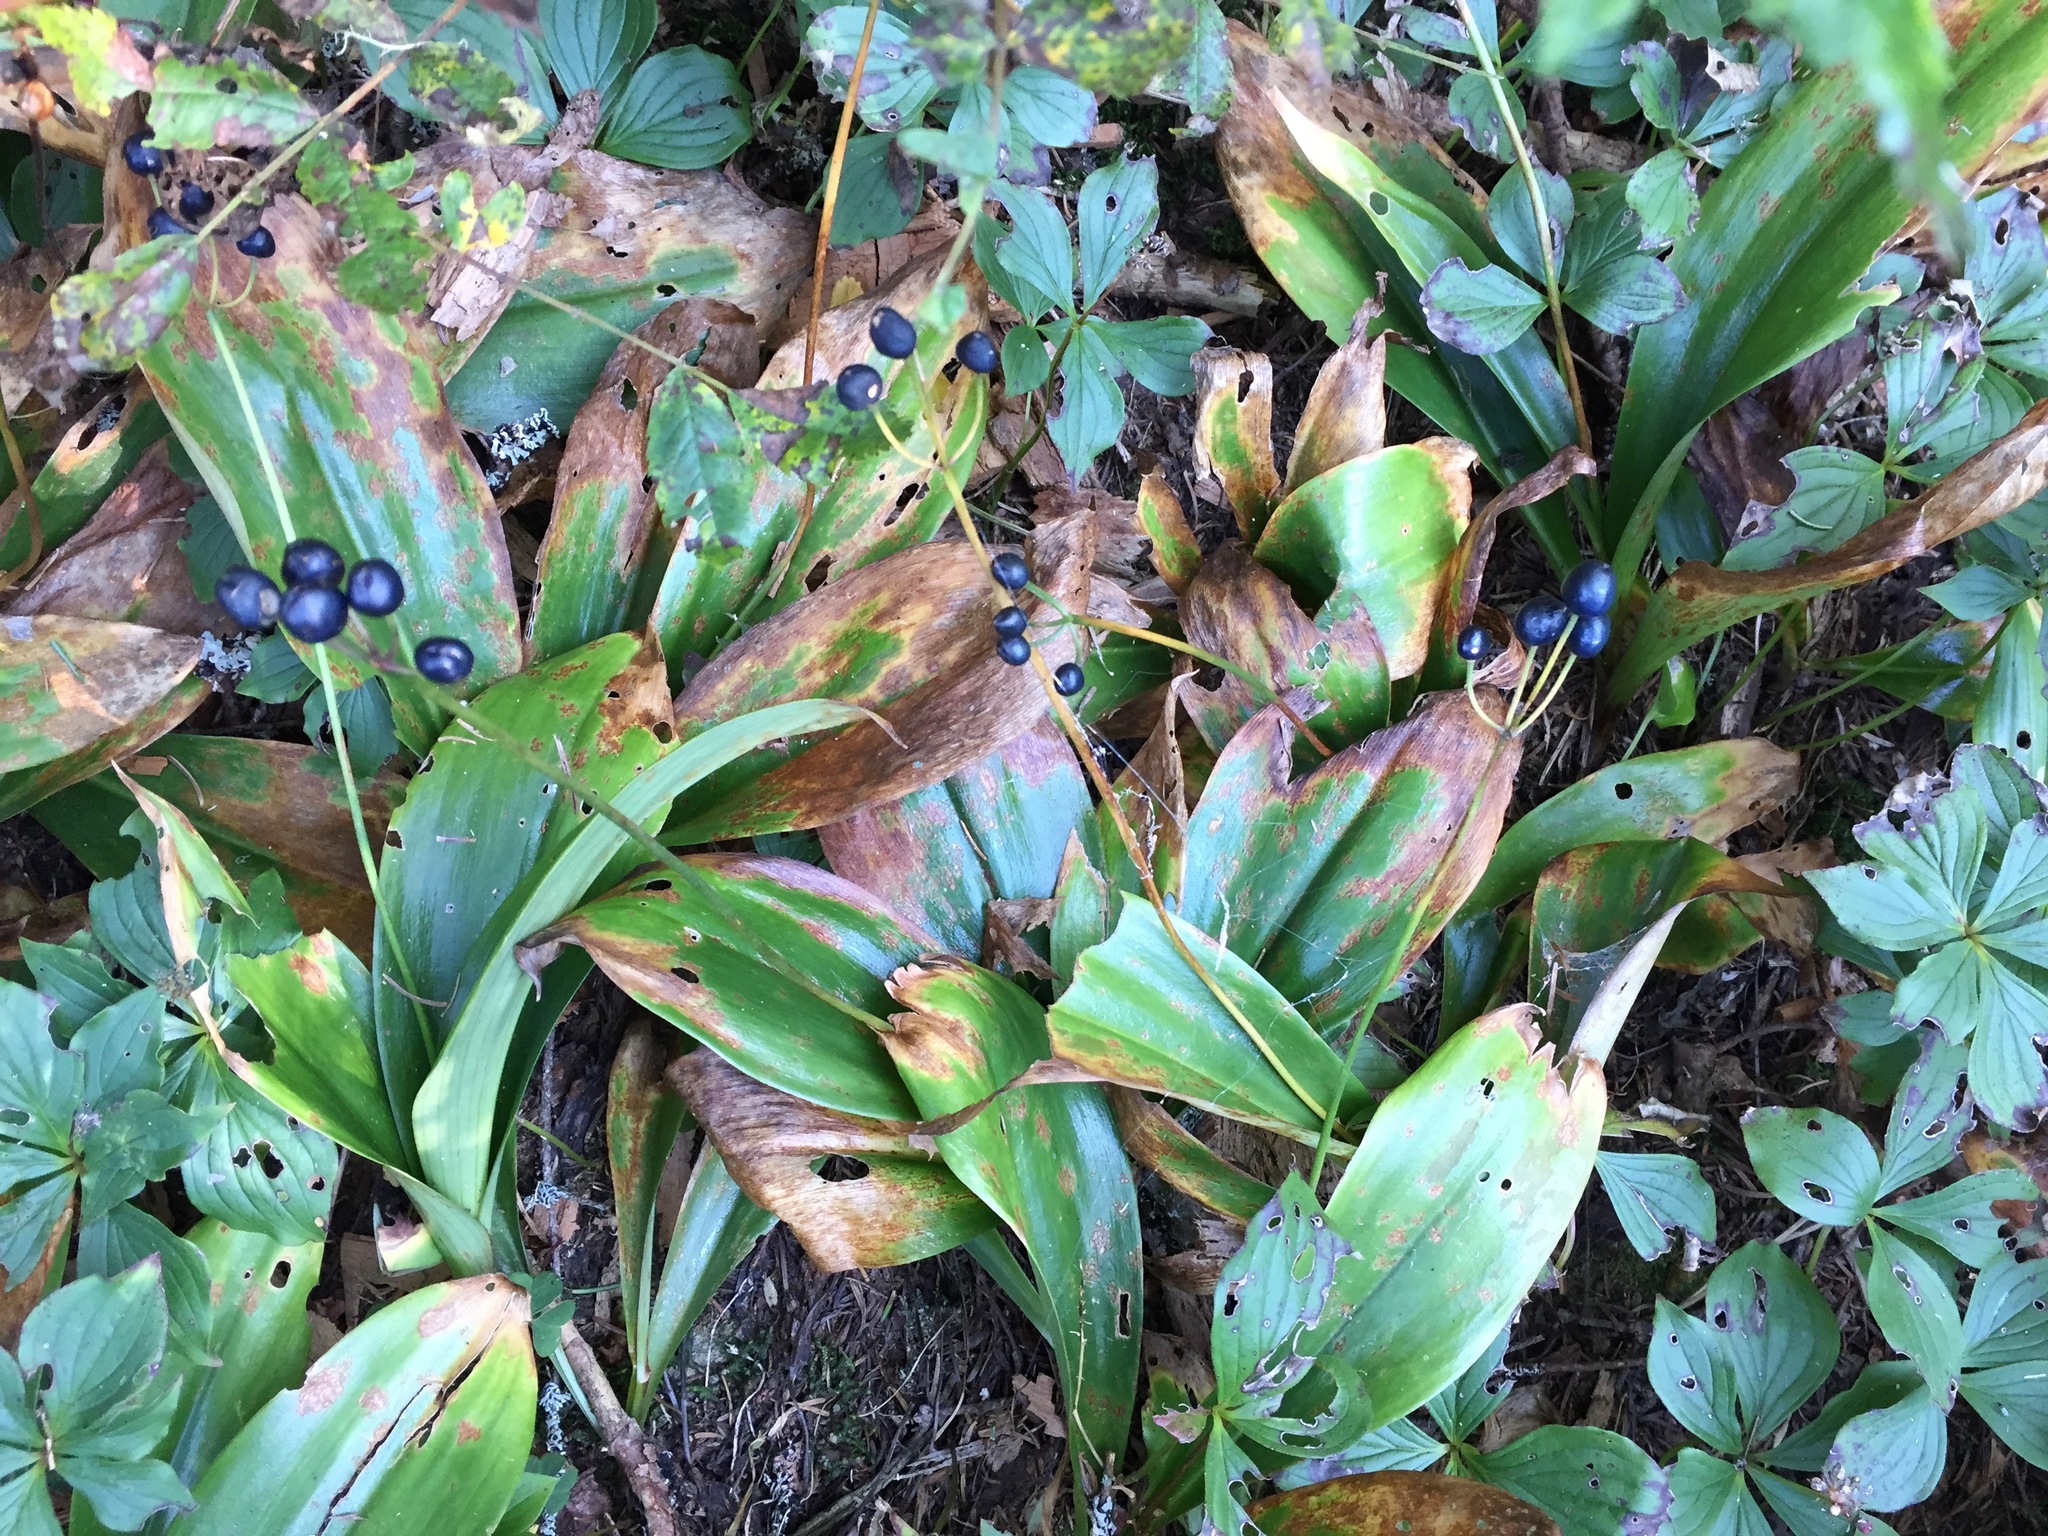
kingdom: Plantae
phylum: Tracheophyta
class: Liliopsida
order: Liliales
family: Liliaceae
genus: Clintonia
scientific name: Clintonia borealis
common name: Yellow clintonia
